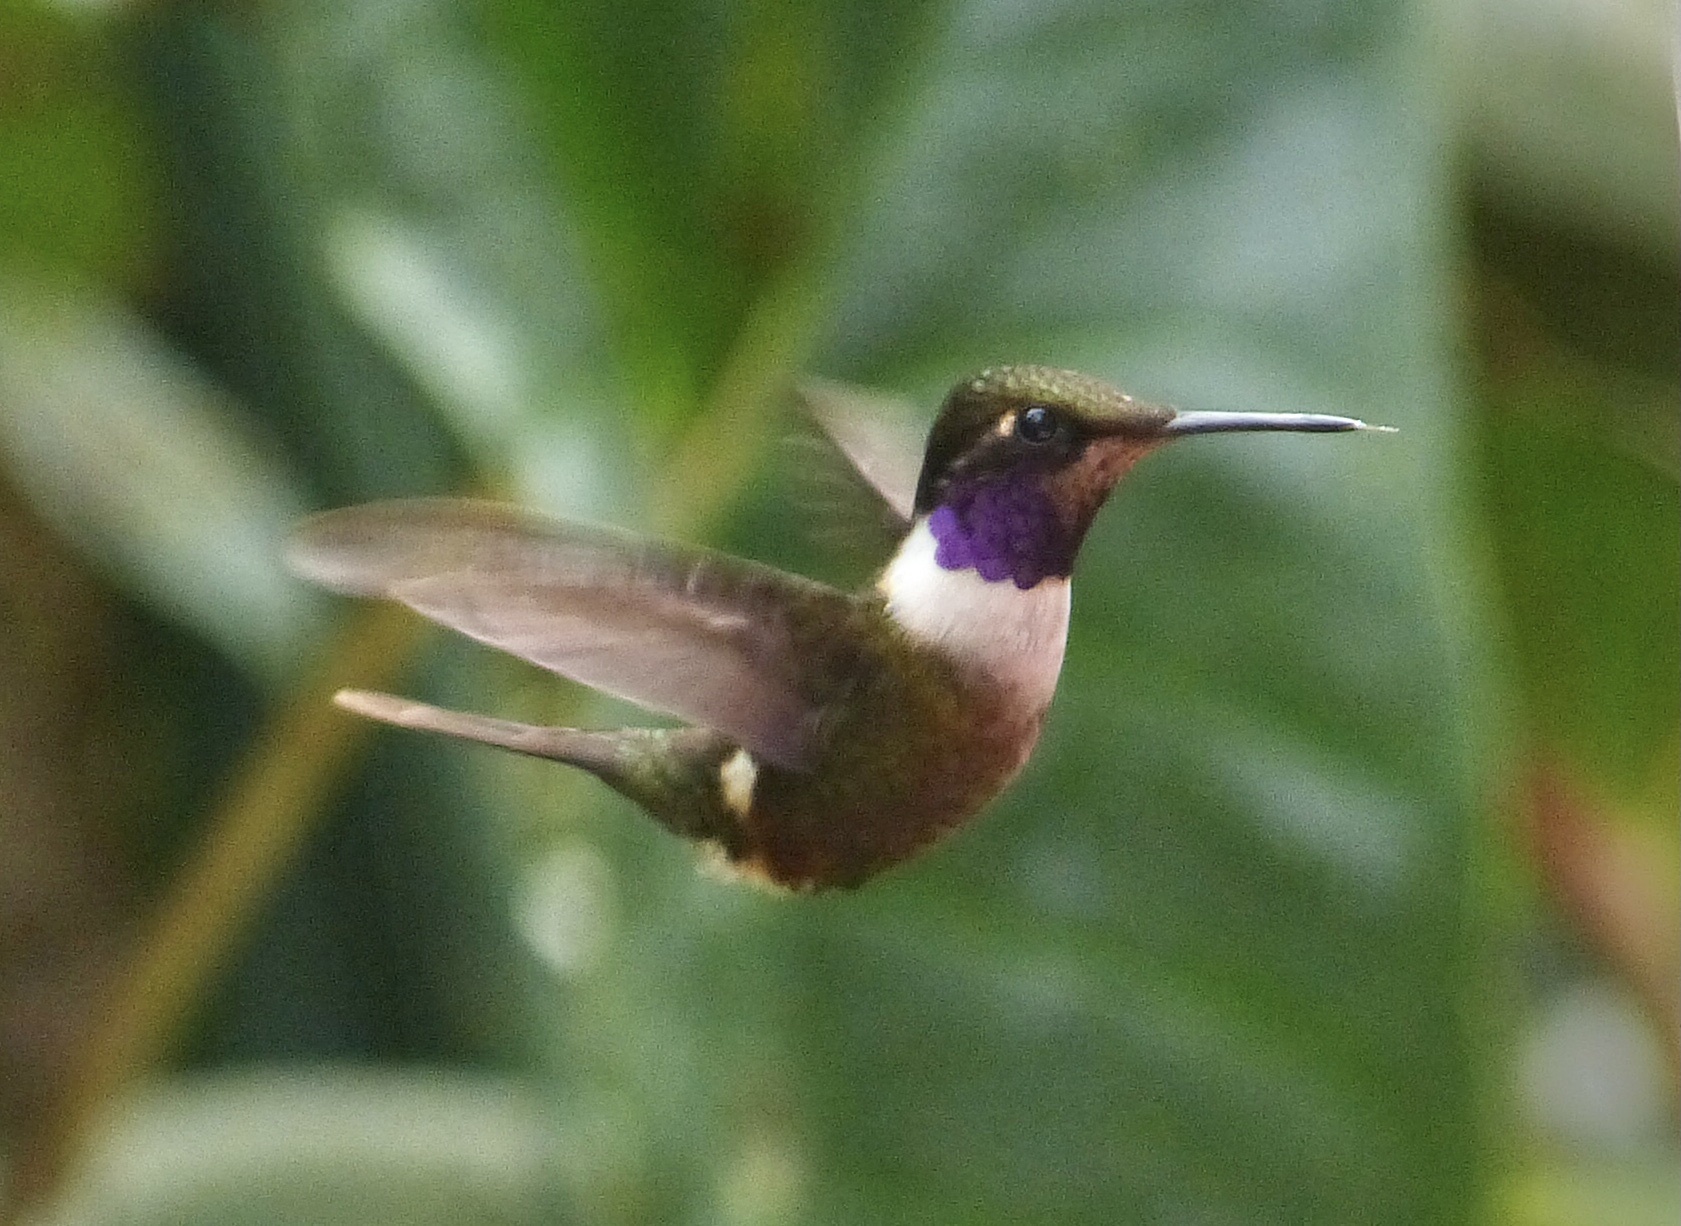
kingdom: Animalia
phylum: Chordata
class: Aves
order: Apodiformes
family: Trochilidae
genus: Calliphlox
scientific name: Calliphlox mitchellii
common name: Purple-throated woodstar
